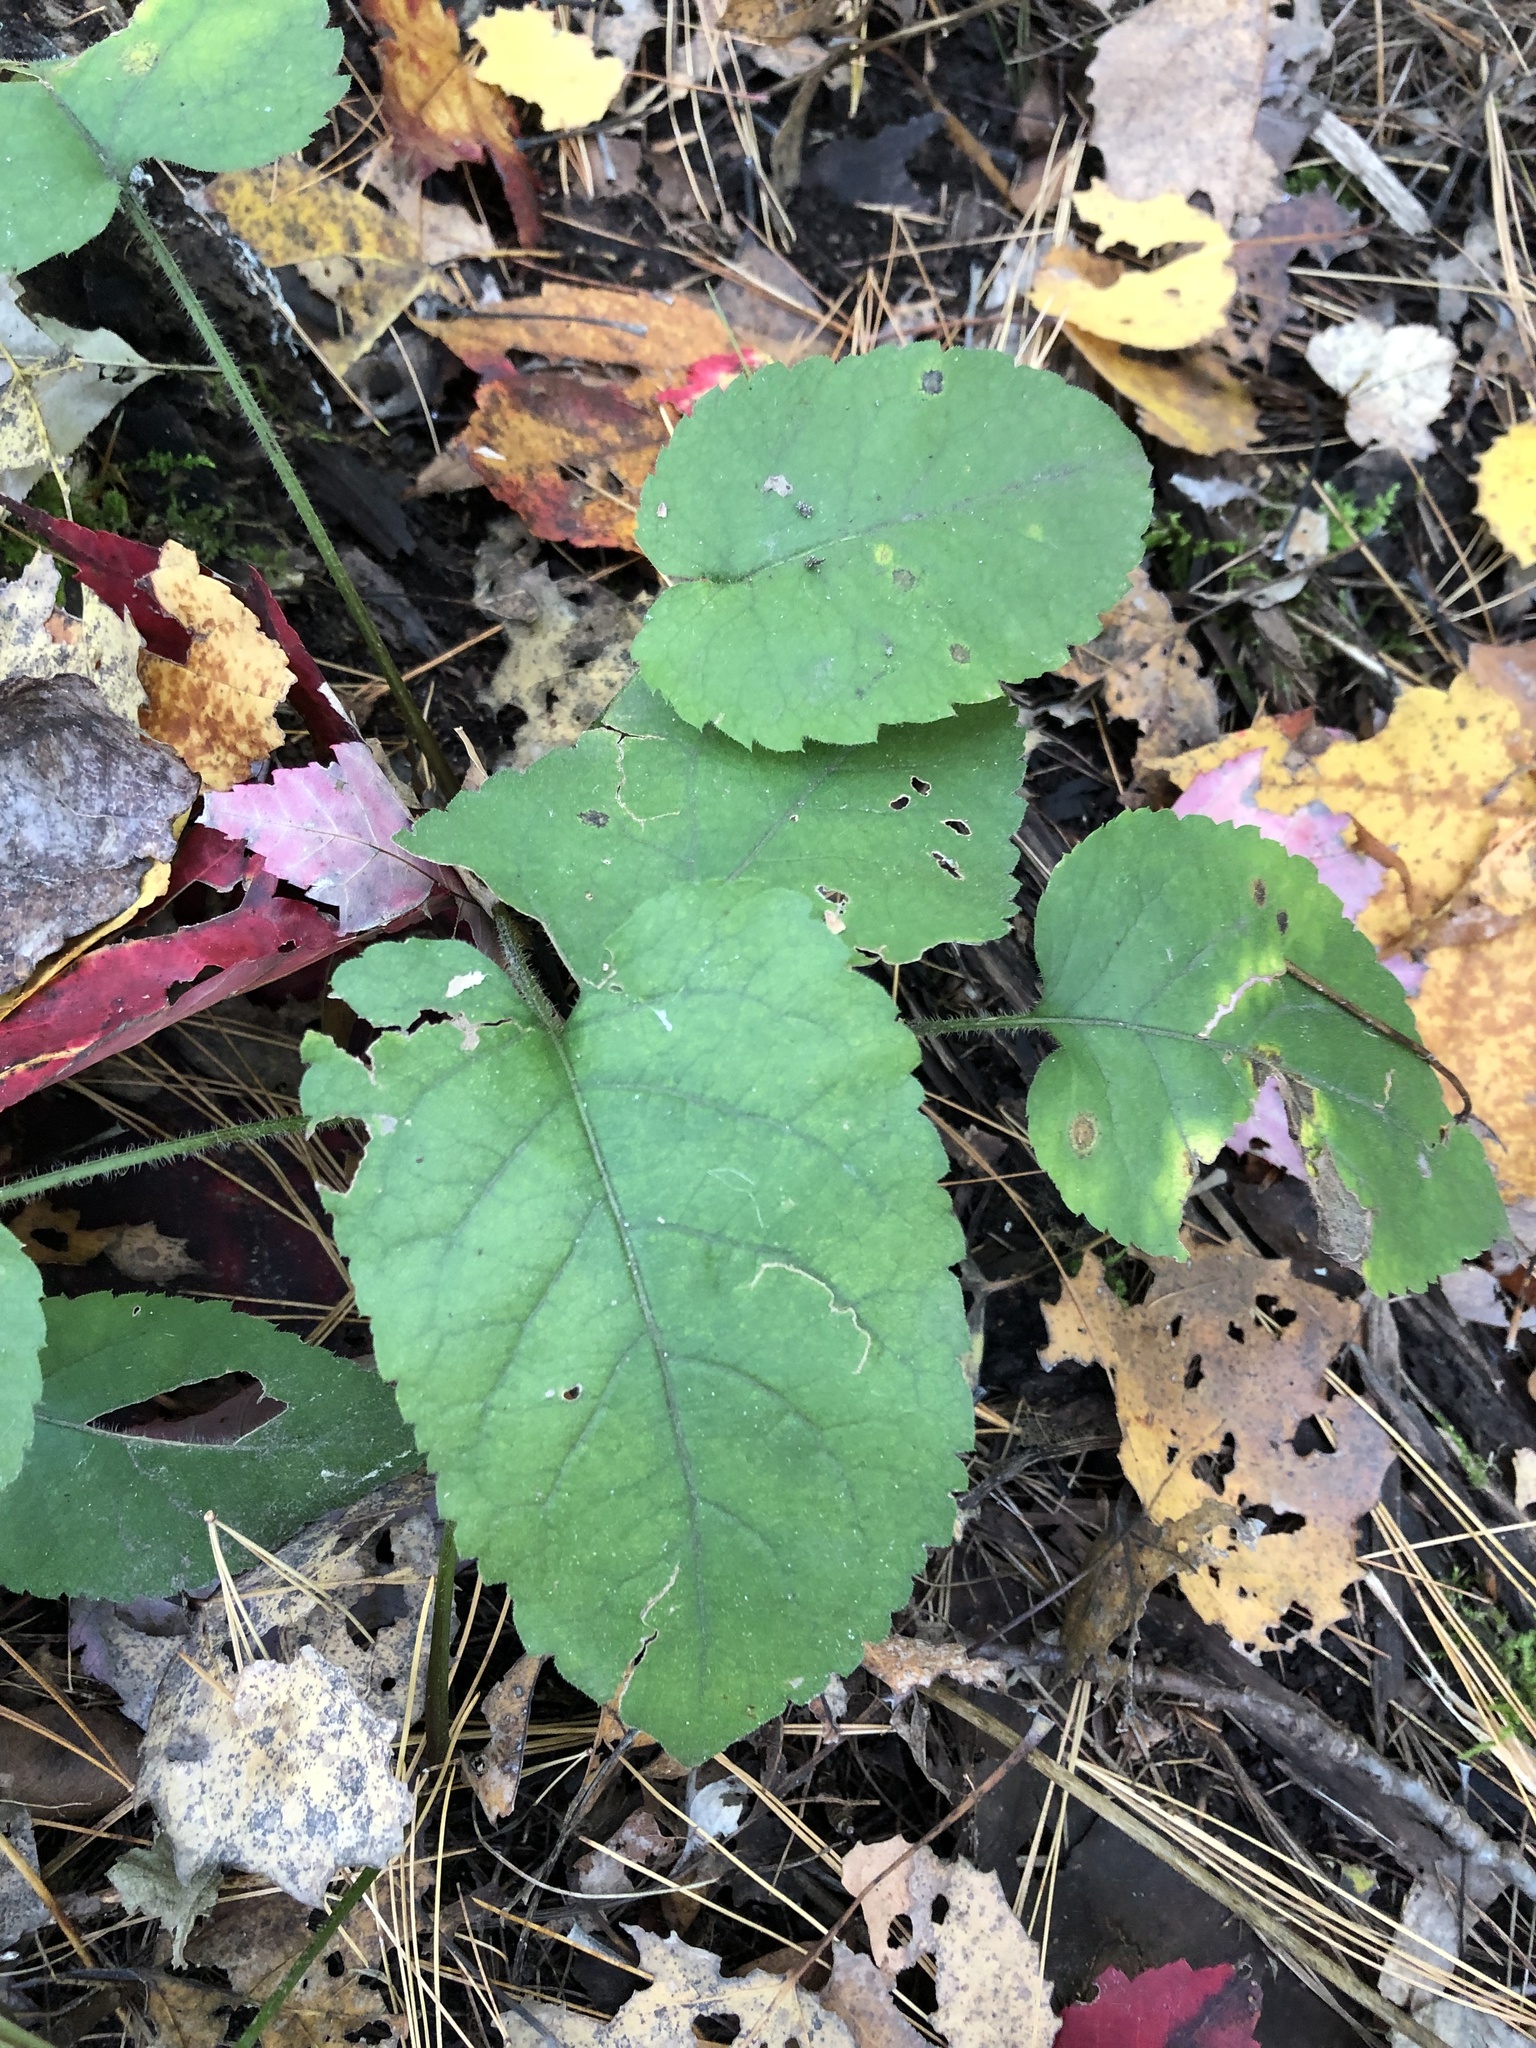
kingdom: Plantae
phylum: Tracheophyta
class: Magnoliopsida
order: Asterales
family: Asteraceae
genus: Eurybia
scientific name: Eurybia macrophylla
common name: Big-leaved aster
